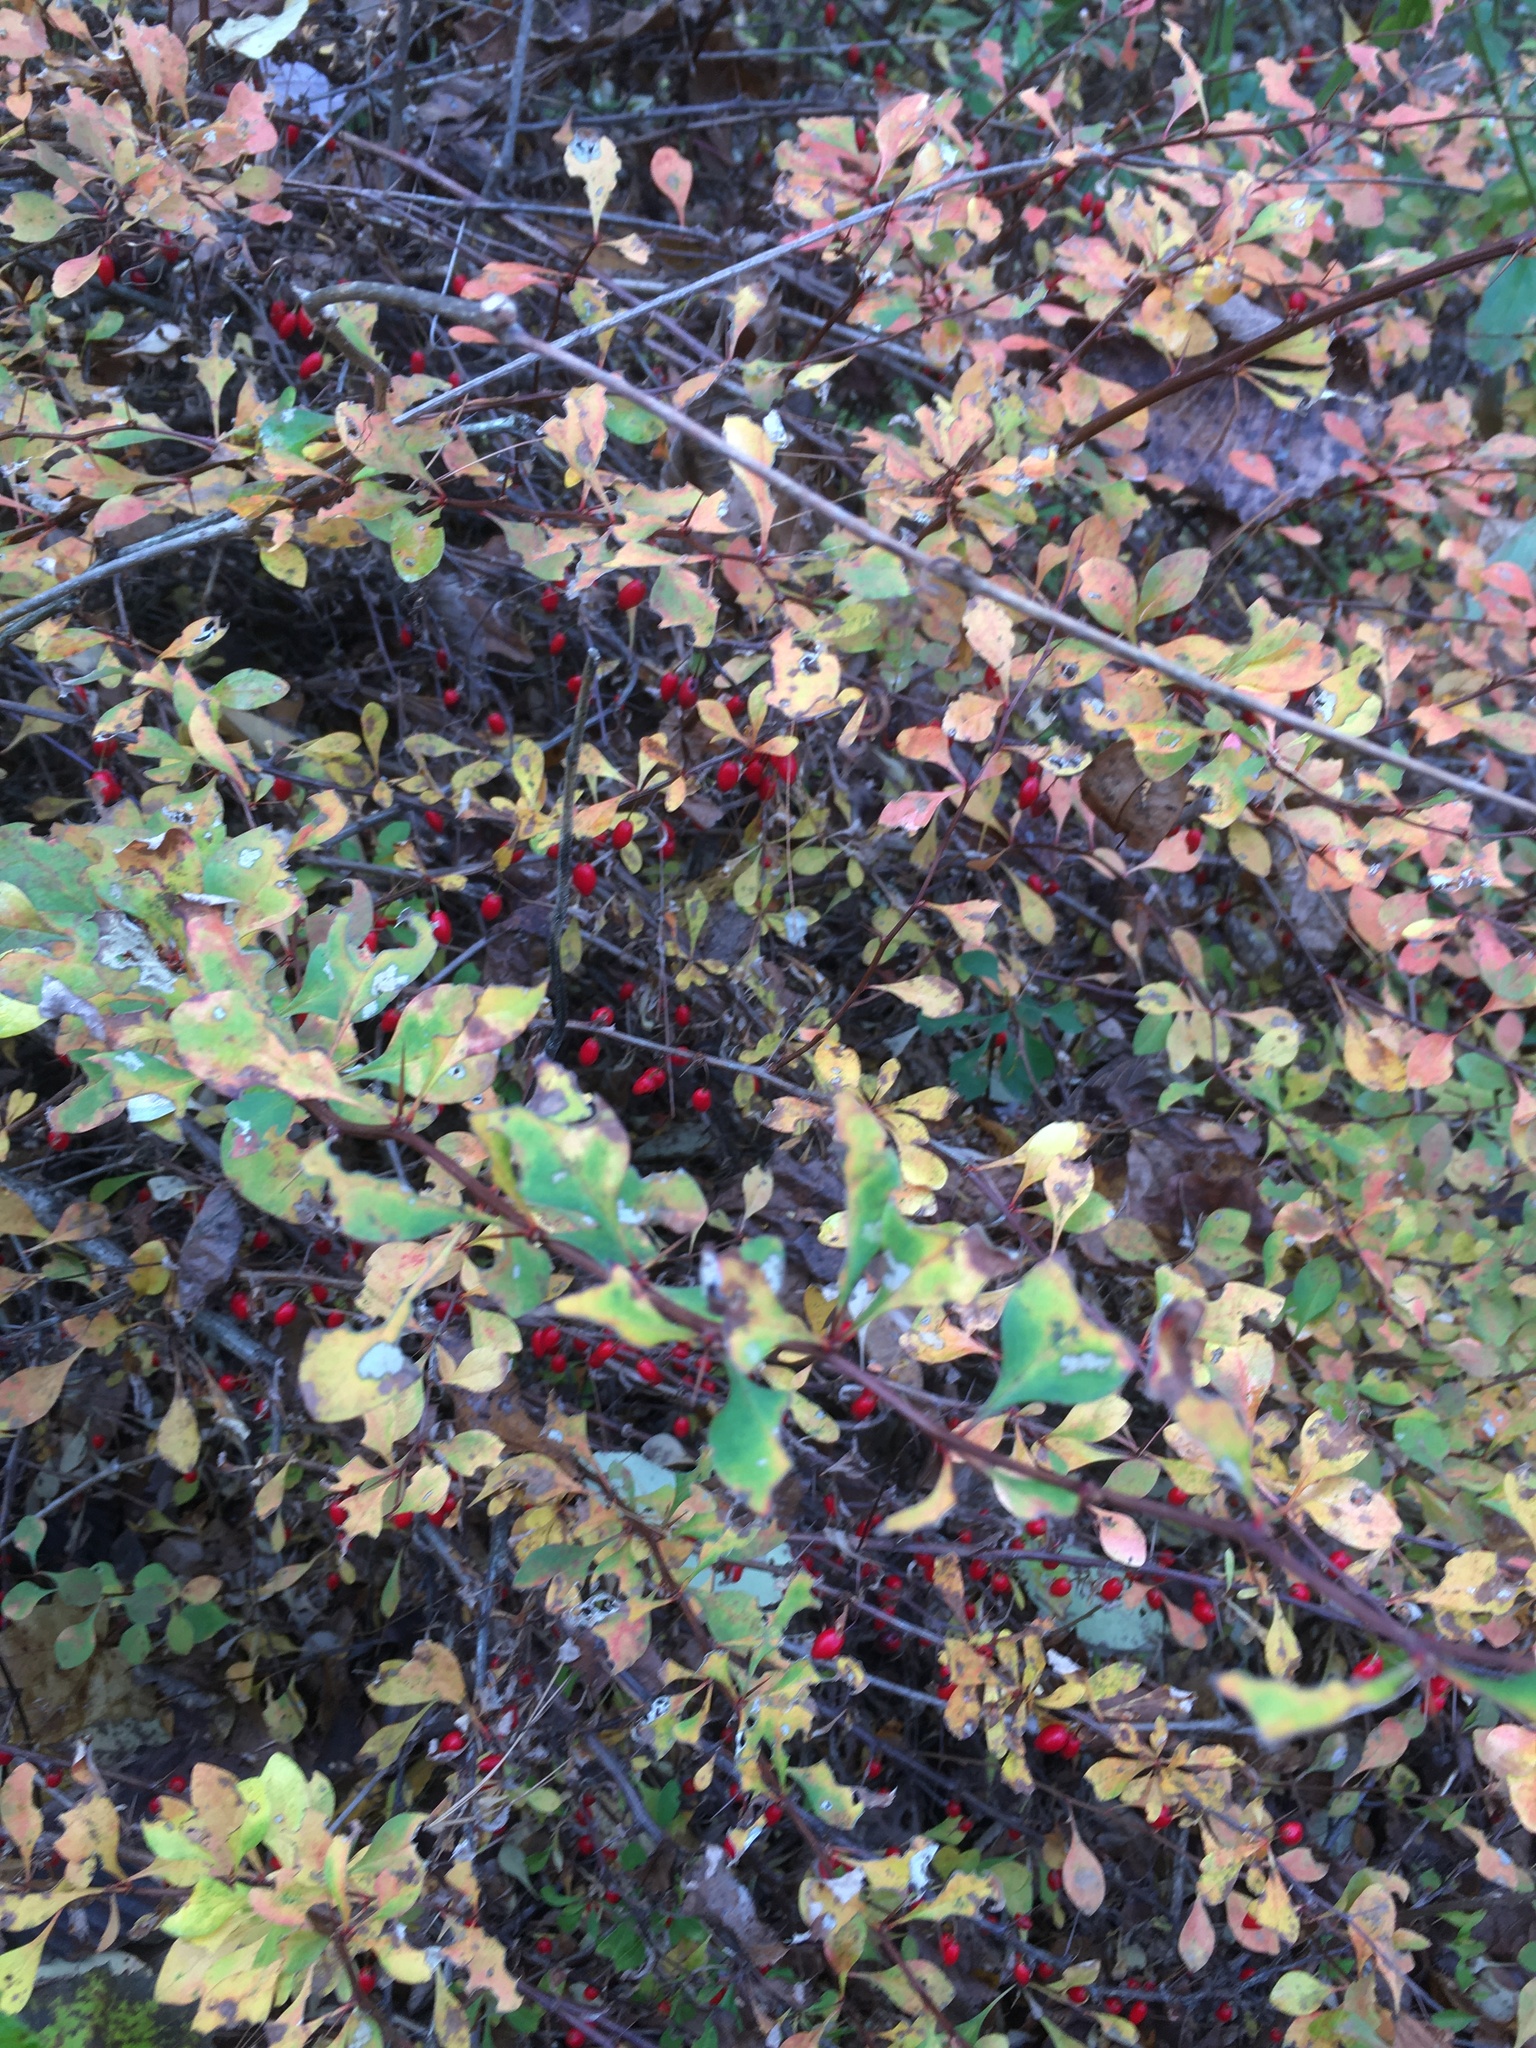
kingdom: Plantae
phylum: Tracheophyta
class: Magnoliopsida
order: Ranunculales
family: Berberidaceae
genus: Berberis
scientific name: Berberis thunbergii
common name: Japanese barberry
